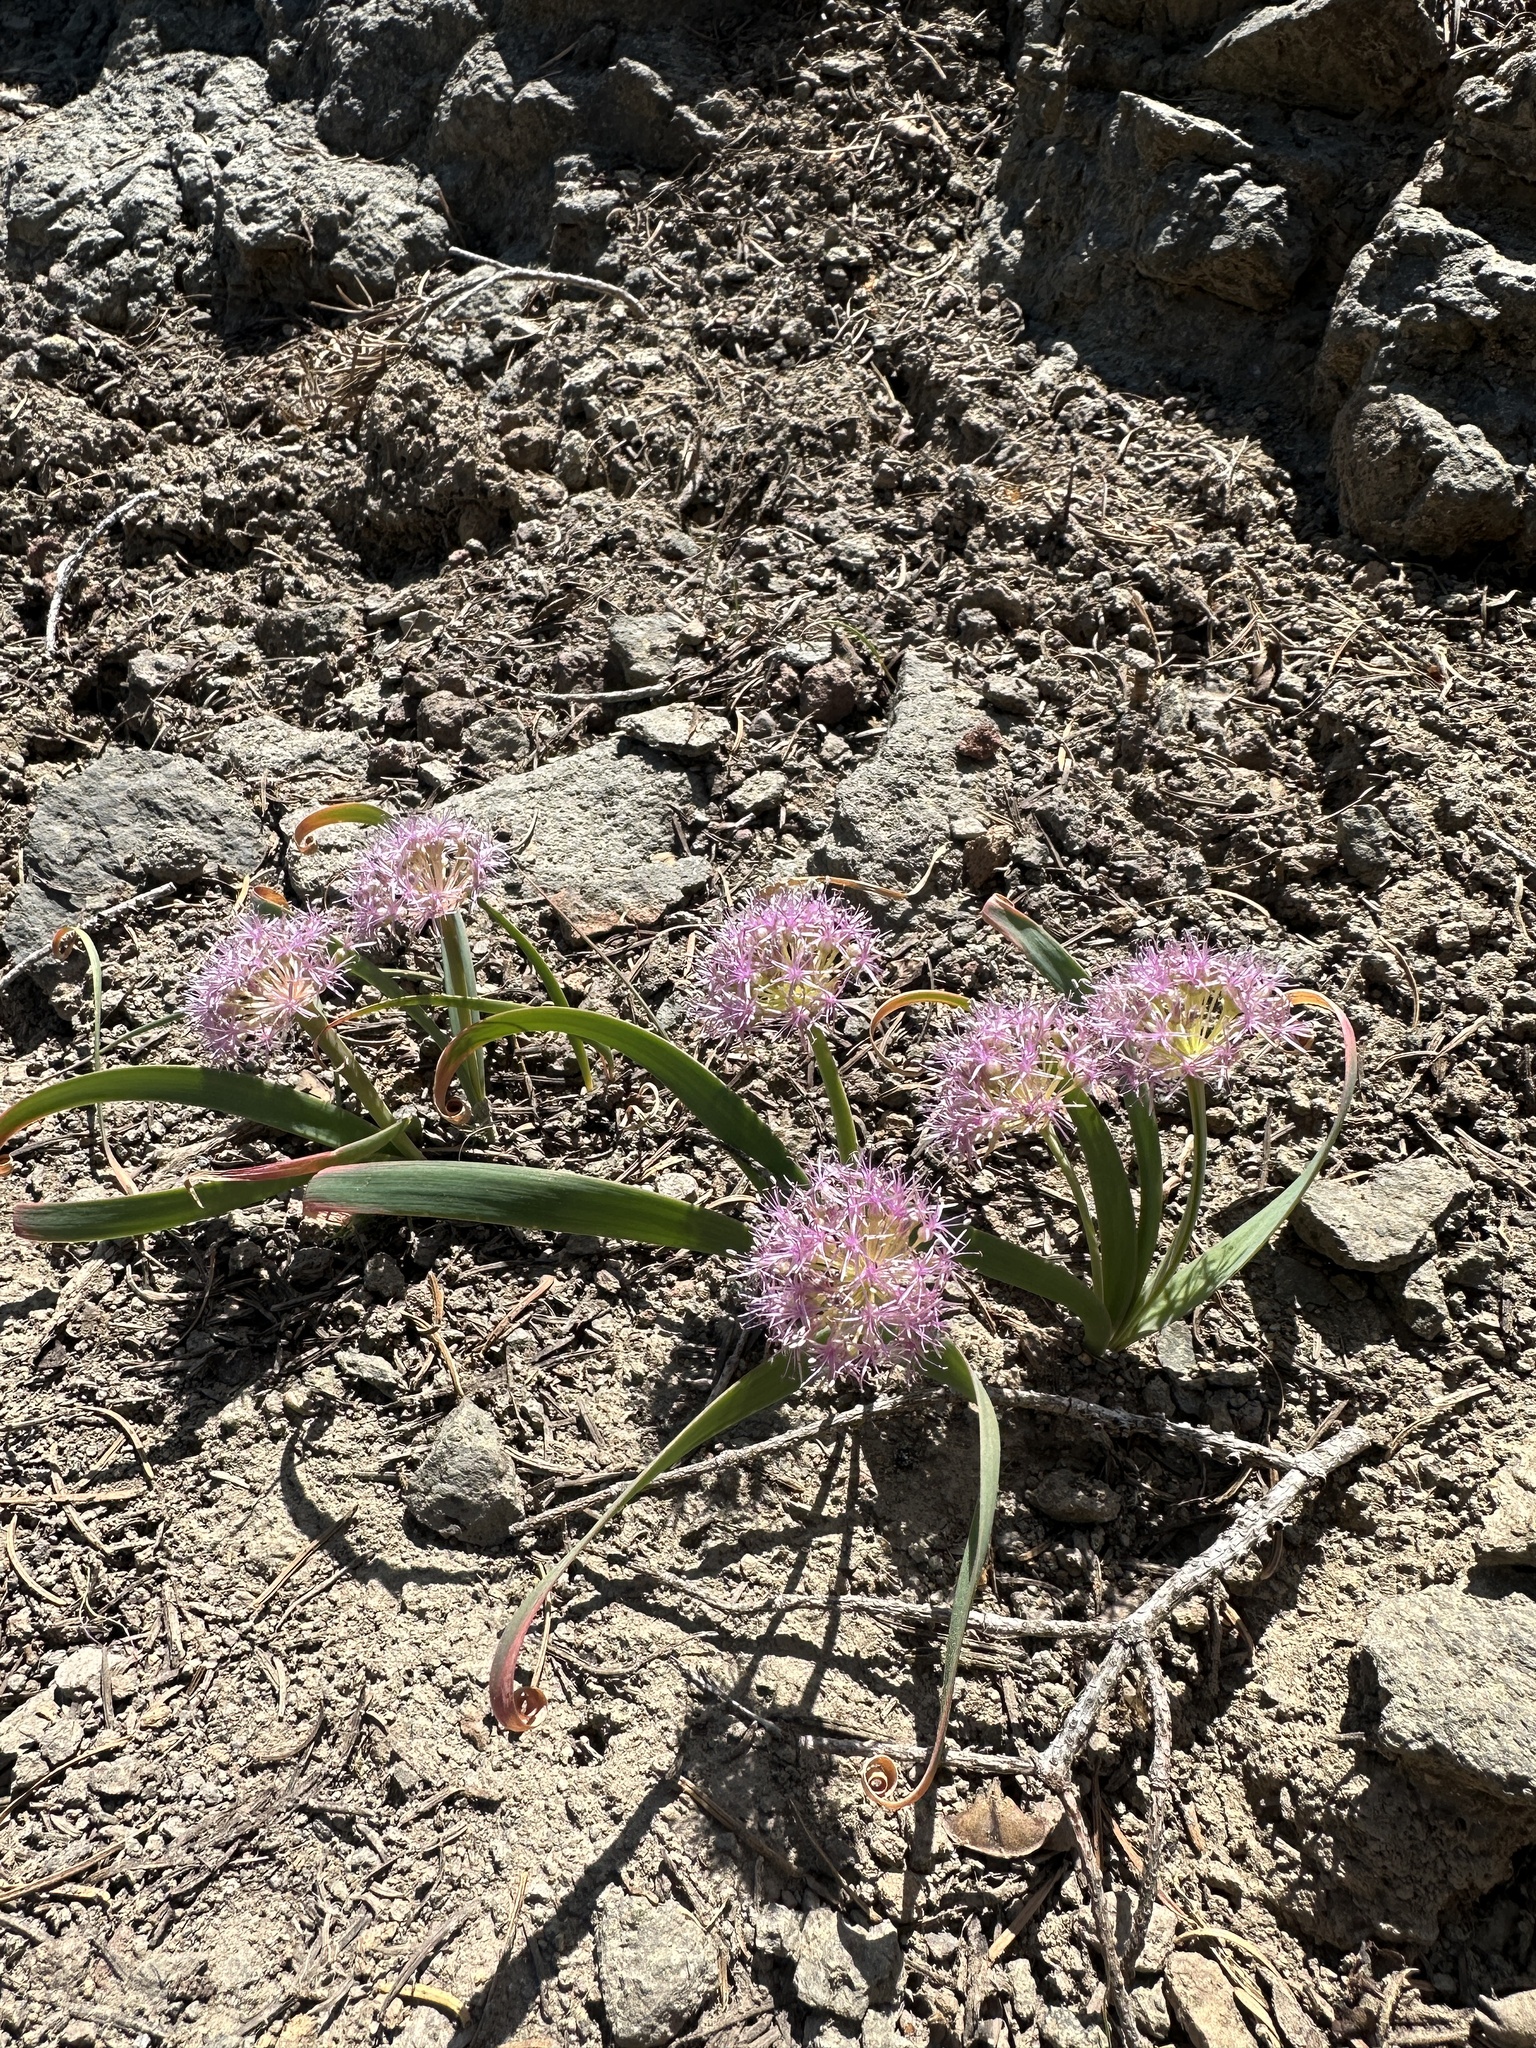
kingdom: Plantae
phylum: Tracheophyta
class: Liliopsida
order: Asparagales
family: Amaryllidaceae
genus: Allium
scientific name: Allium platycaule
